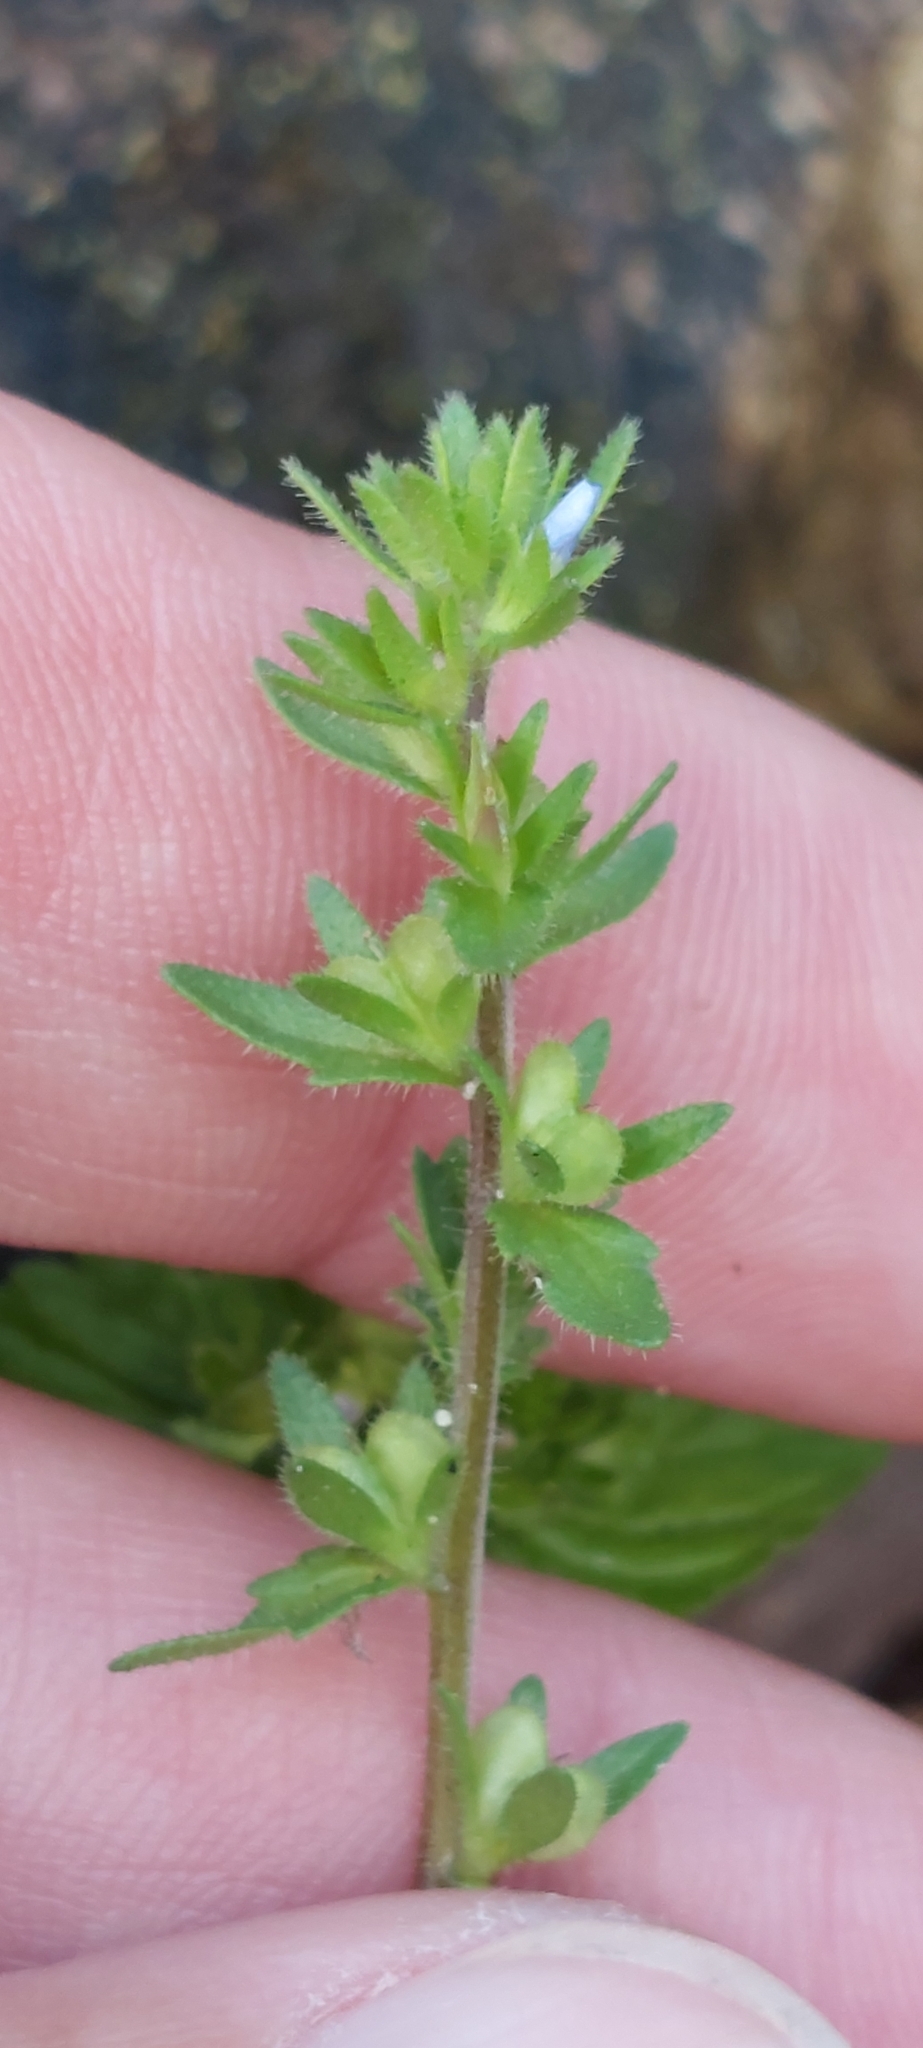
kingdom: Plantae
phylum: Tracheophyta
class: Magnoliopsida
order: Lamiales
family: Plantaginaceae
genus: Veronica
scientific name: Veronica arvensis
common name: Corn speedwell
